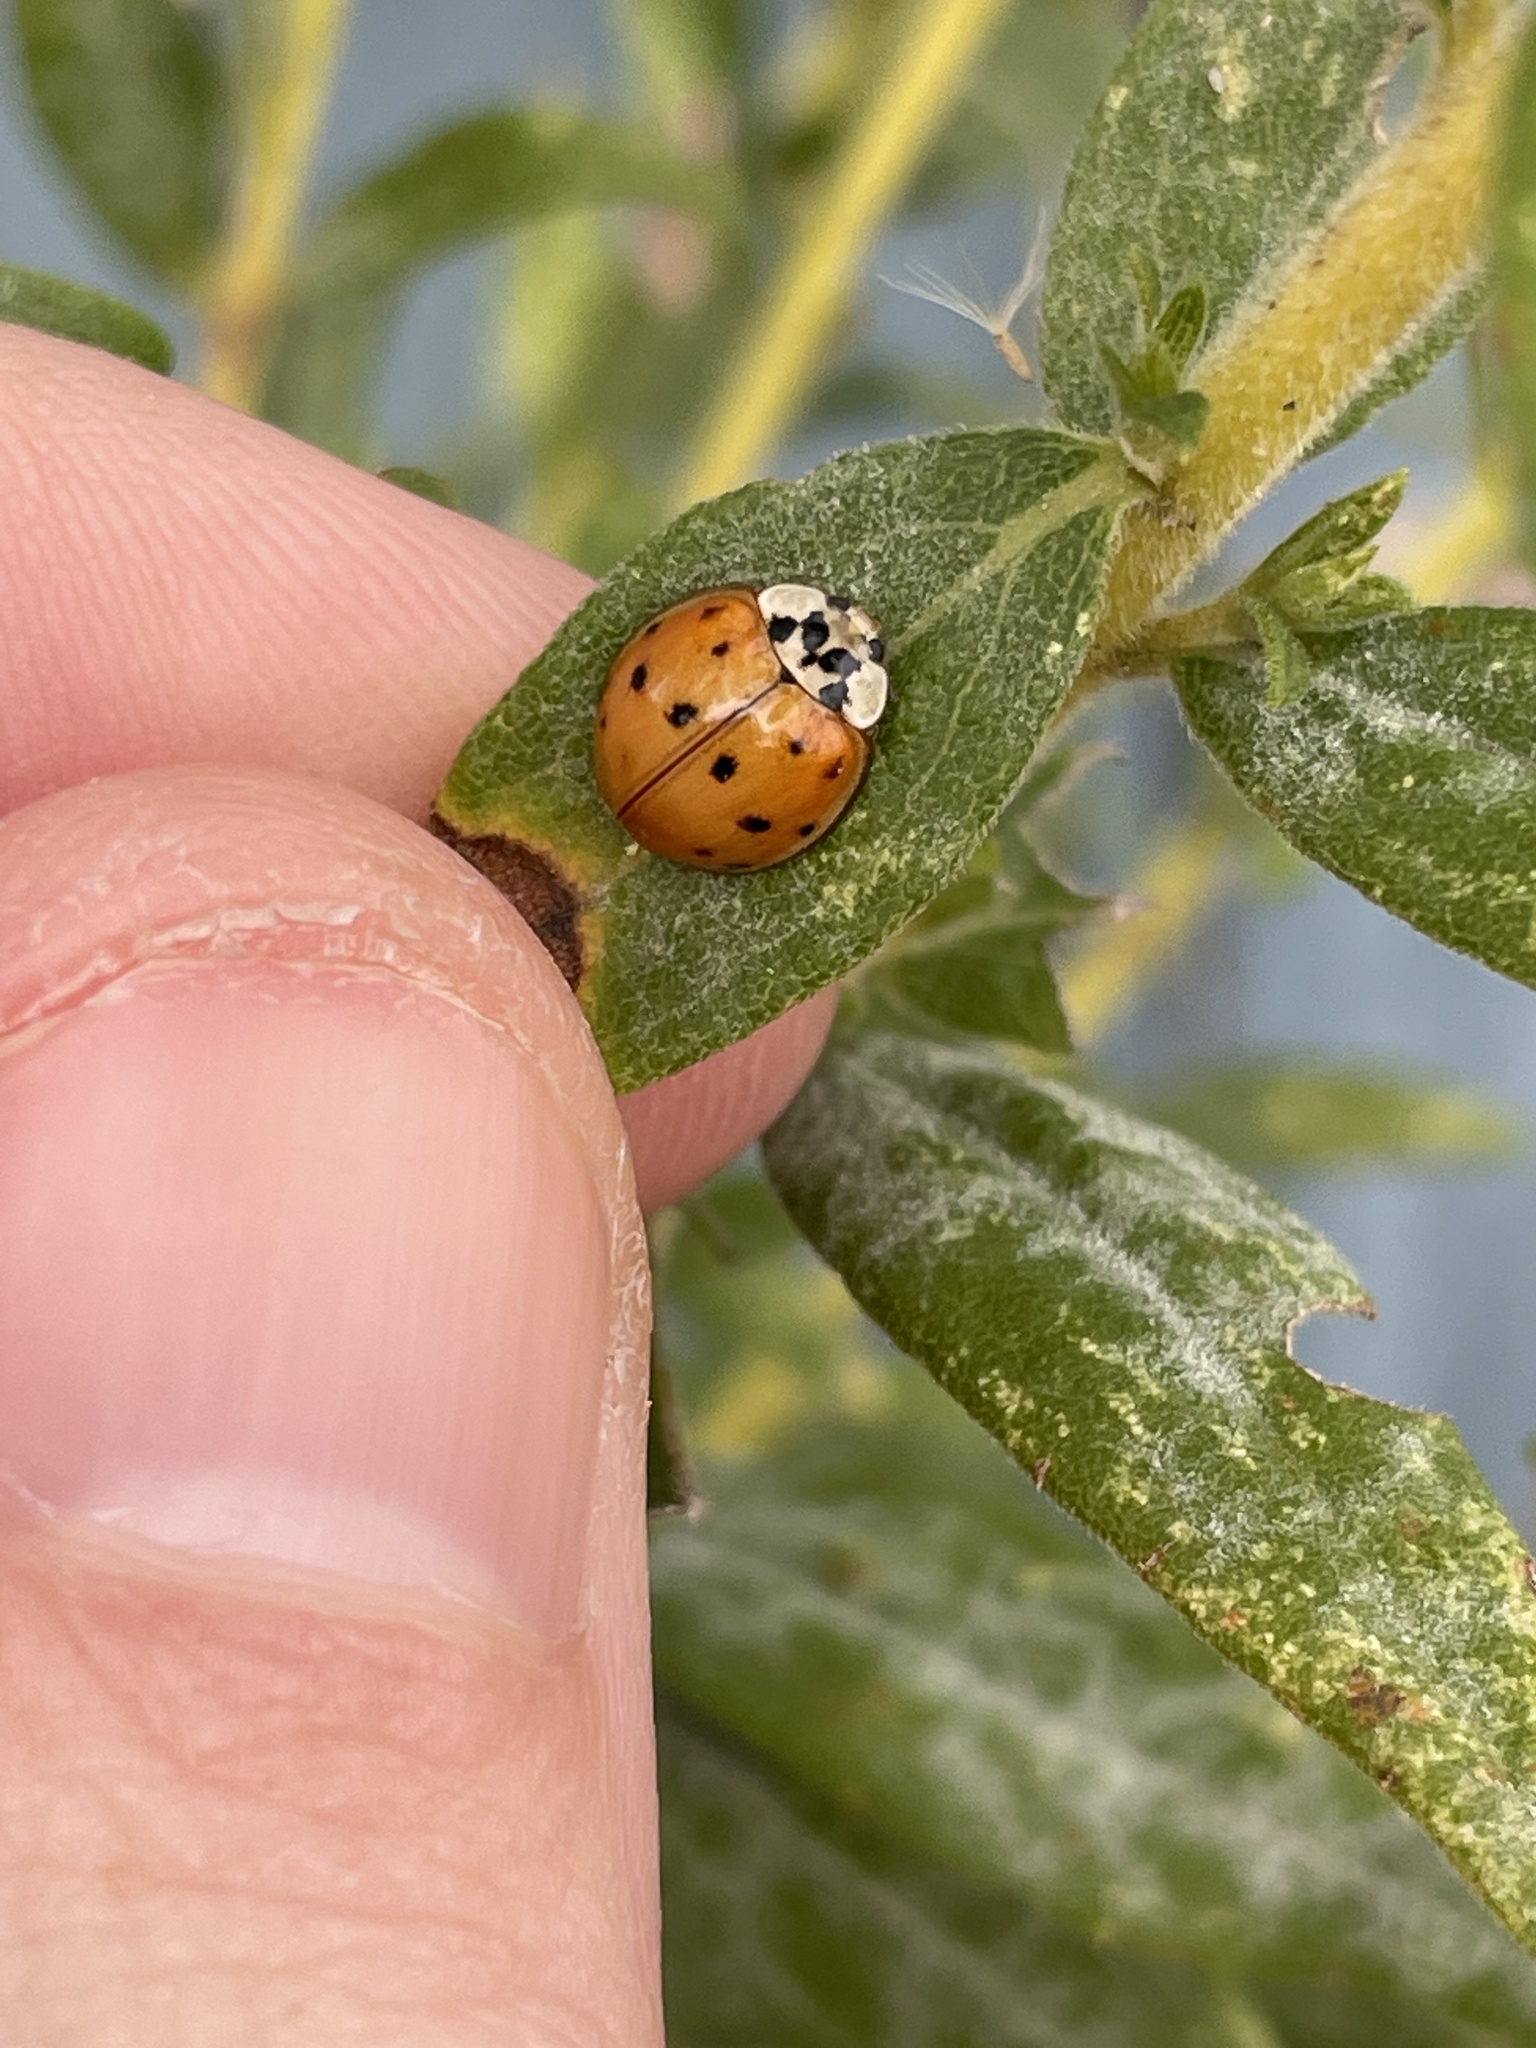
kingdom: Animalia
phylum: Arthropoda
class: Insecta
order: Coleoptera
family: Coccinellidae
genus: Harmonia
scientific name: Harmonia axyridis
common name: Harlequin ladybird
